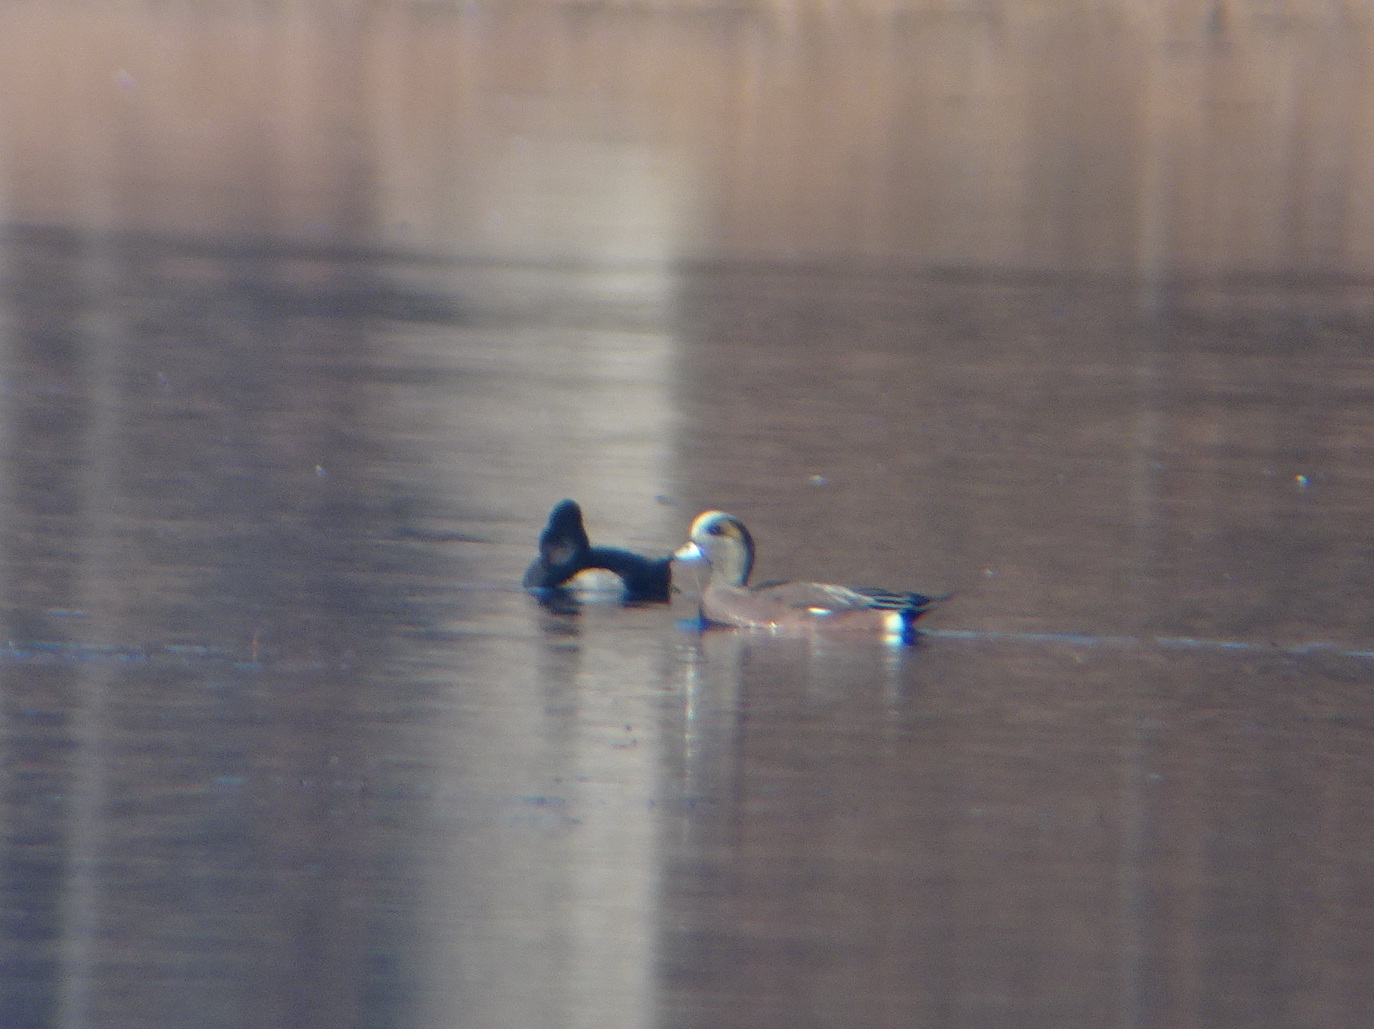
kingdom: Animalia
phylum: Chordata
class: Aves
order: Anseriformes
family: Anatidae
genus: Mareca
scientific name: Mareca americana
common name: American wigeon
